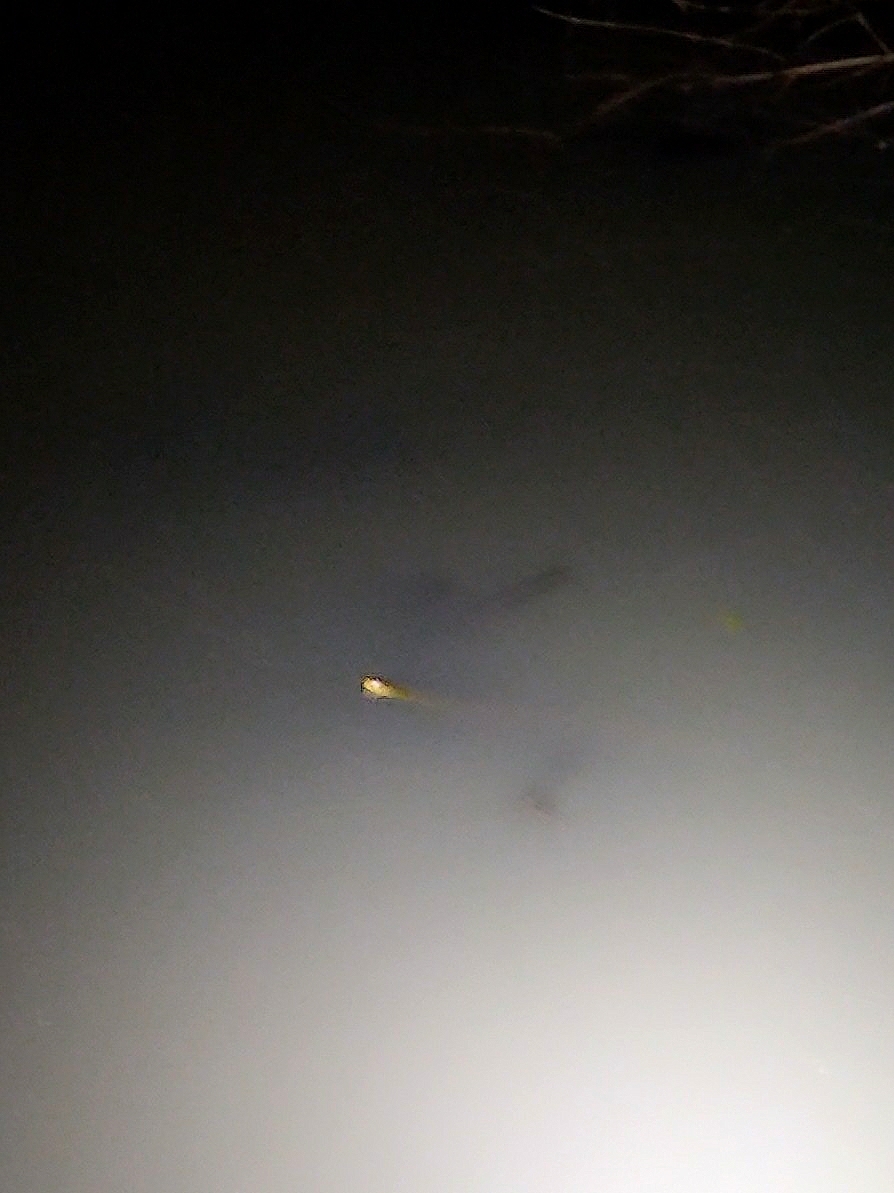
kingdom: Animalia
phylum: Chordata
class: Squamata
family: Colubridae
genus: Fowlea
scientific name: Fowlea piscator
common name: Asiatic water snake
